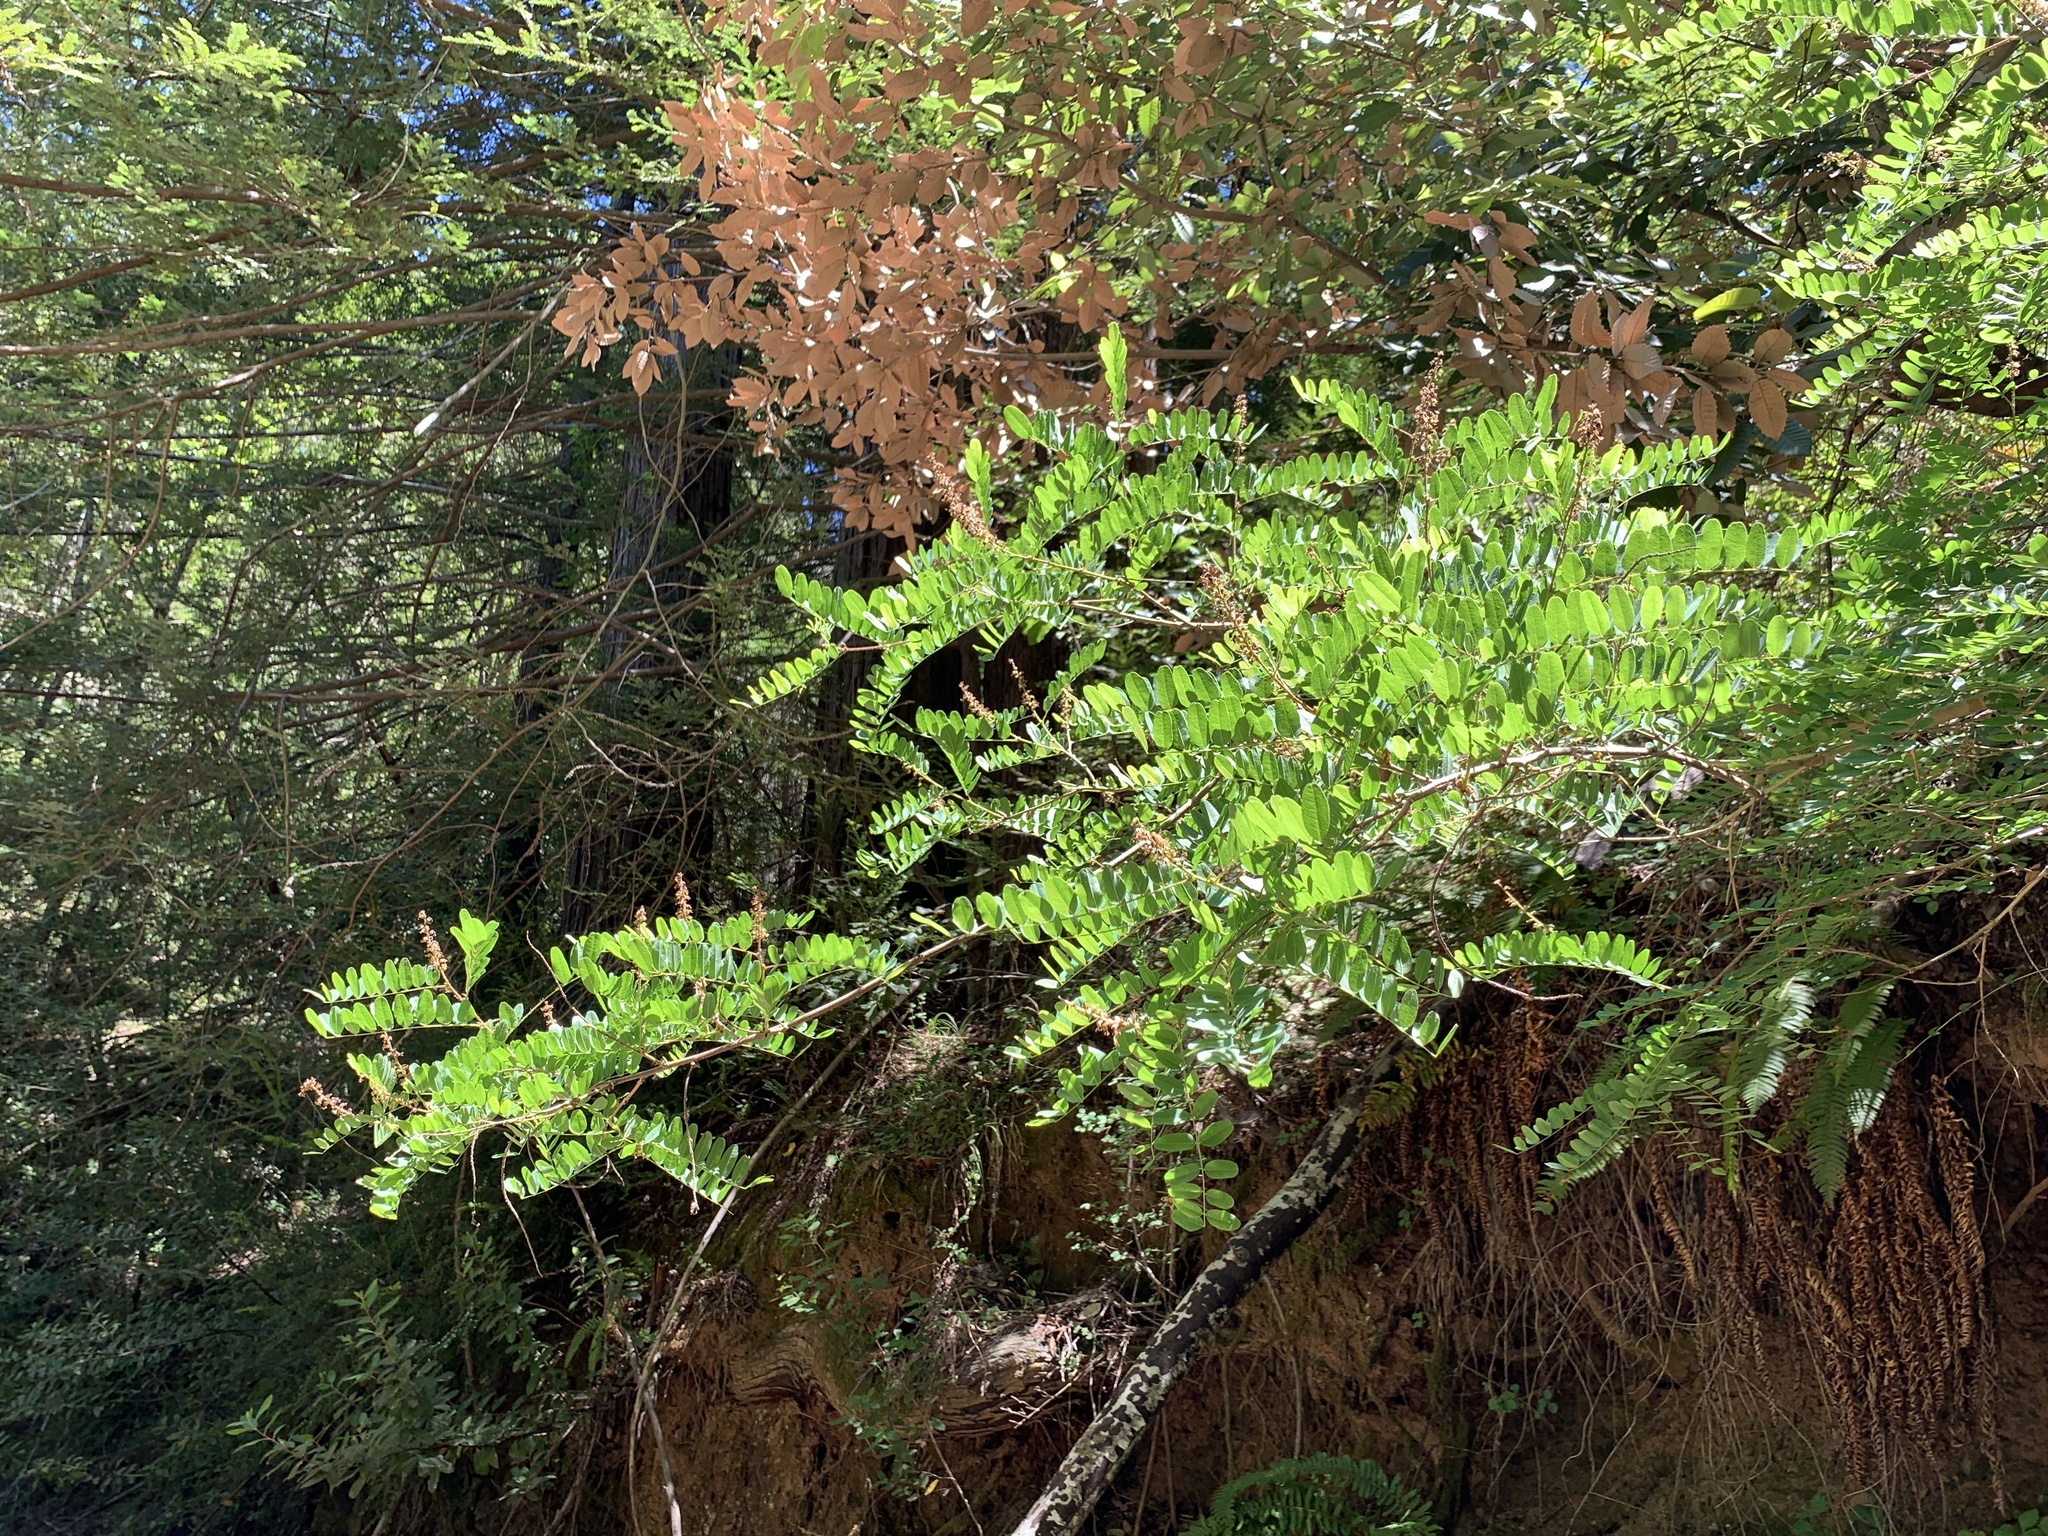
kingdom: Plantae
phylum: Tracheophyta
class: Magnoliopsida
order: Fabales
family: Fabaceae
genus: Amorpha
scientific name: Amorpha californica
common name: California indigobush
